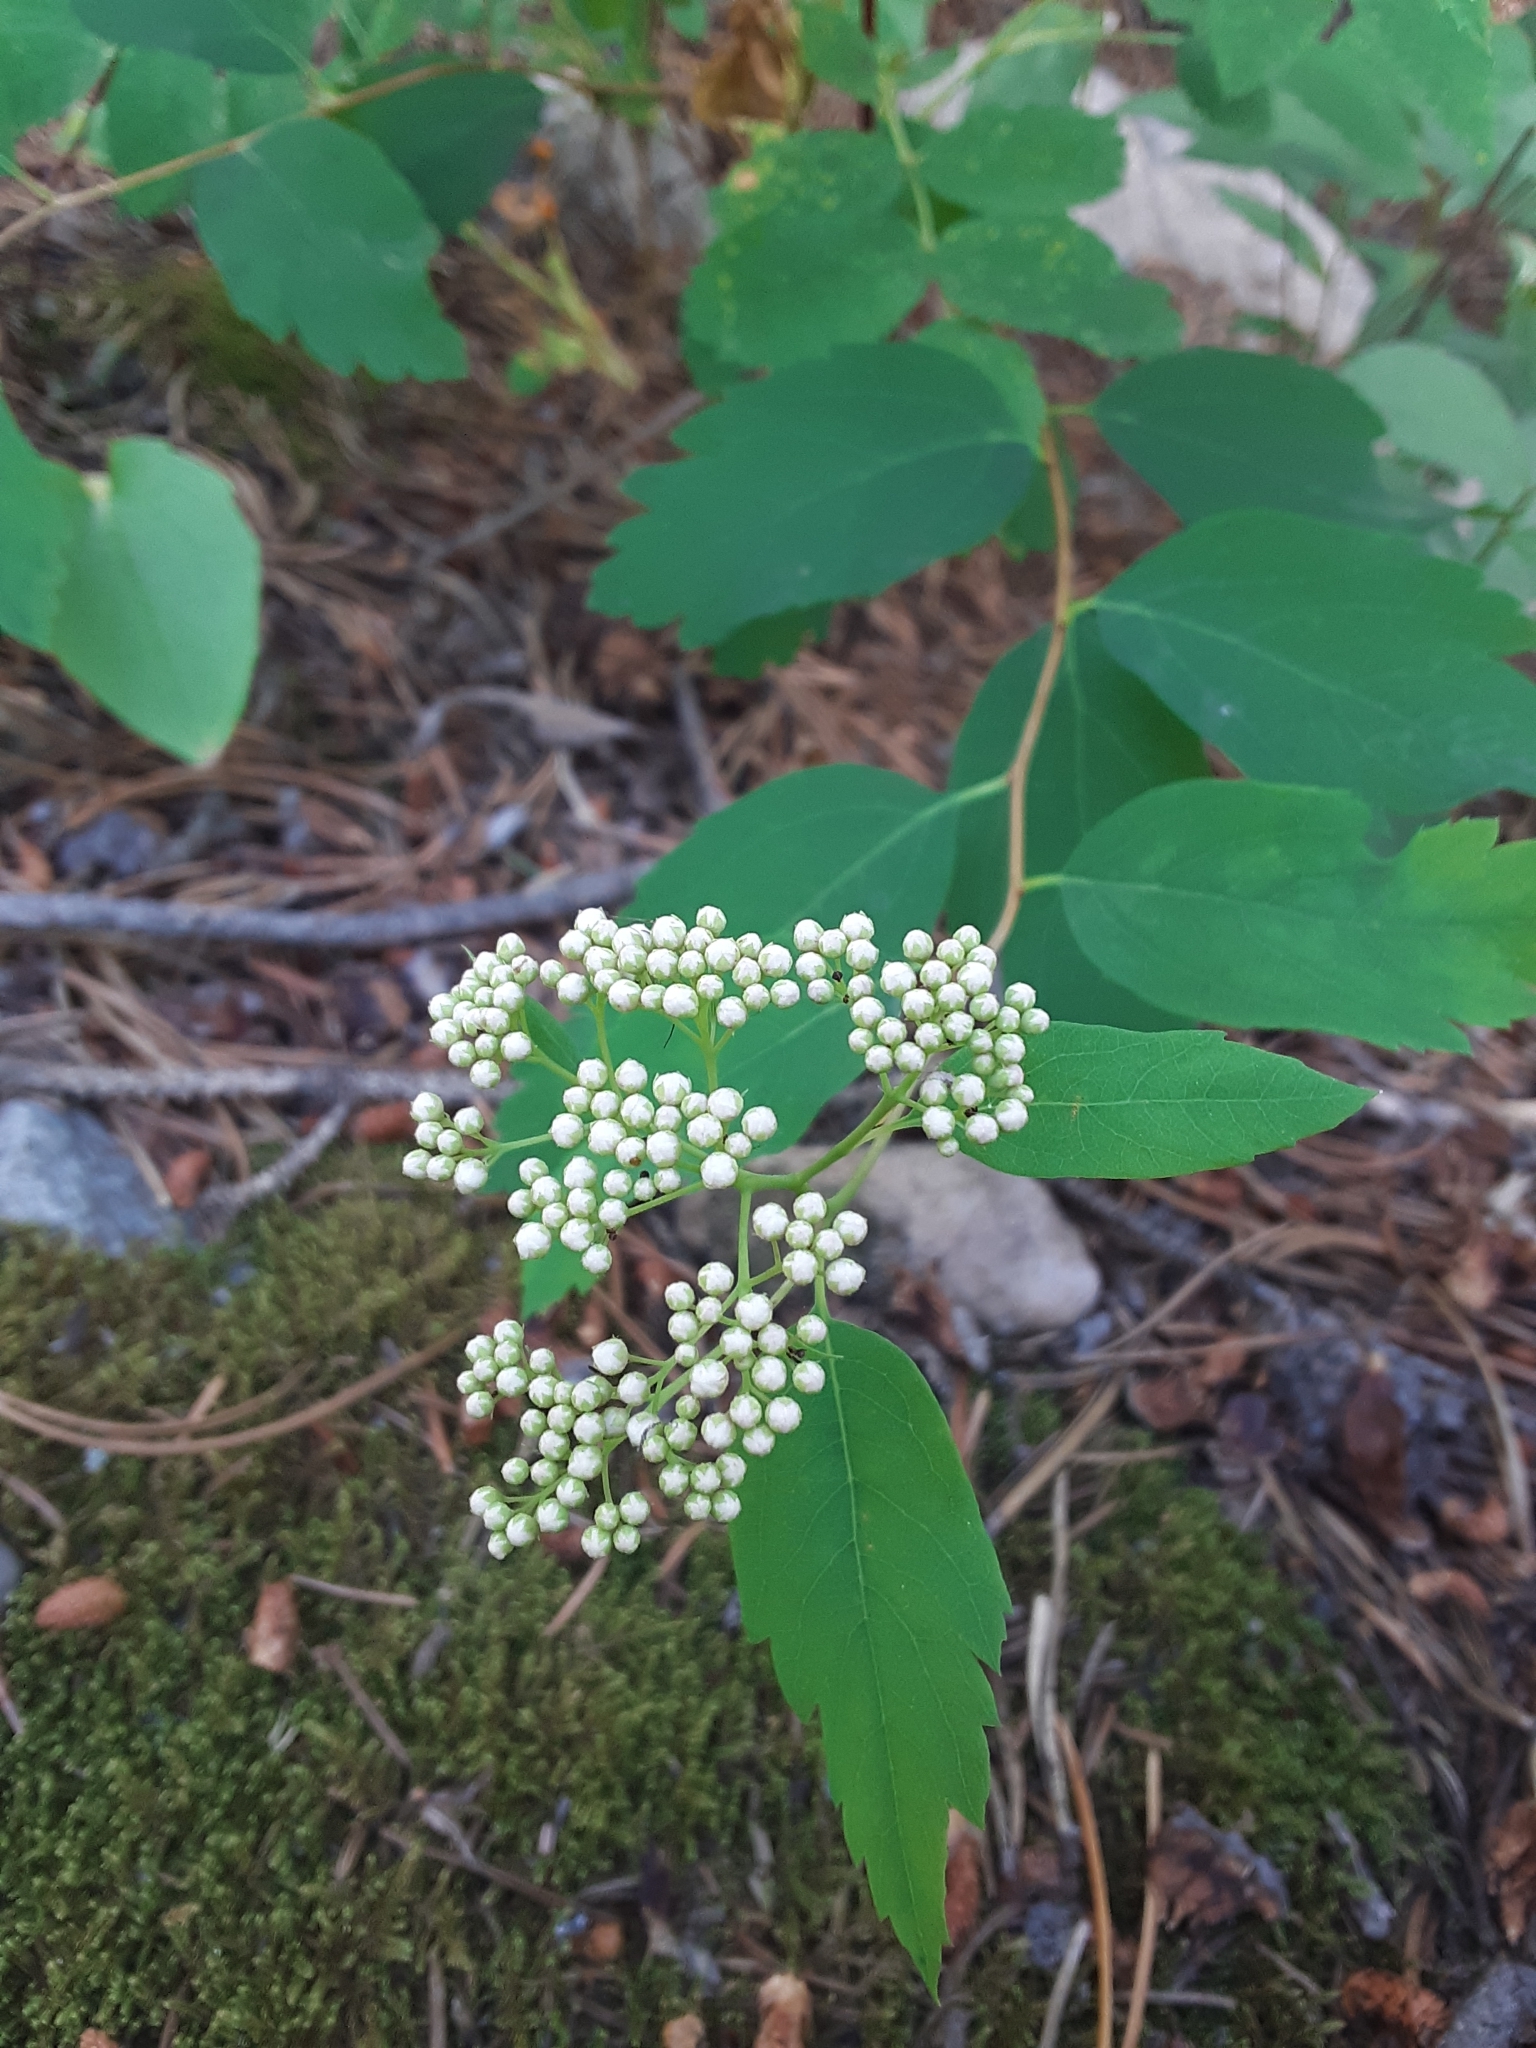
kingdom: Plantae
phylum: Tracheophyta
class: Magnoliopsida
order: Rosales
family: Rosaceae
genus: Spiraea
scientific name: Spiraea lucida
